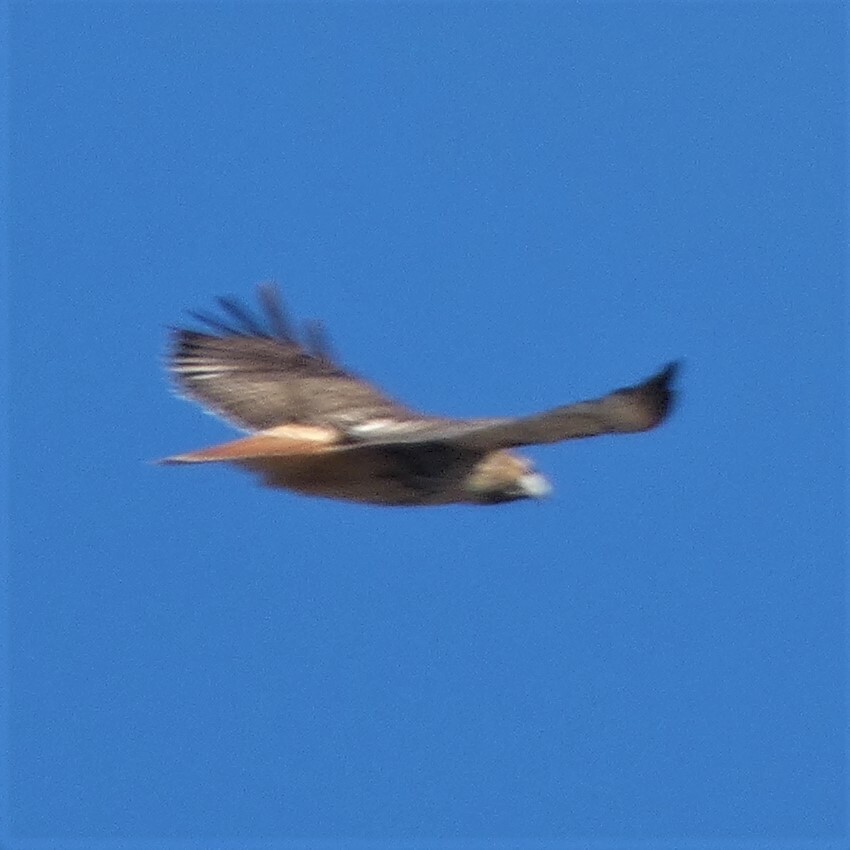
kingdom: Animalia
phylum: Chordata
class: Aves
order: Accipitriformes
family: Accipitridae
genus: Buteo
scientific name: Buteo jamaicensis
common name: Red-tailed hawk
